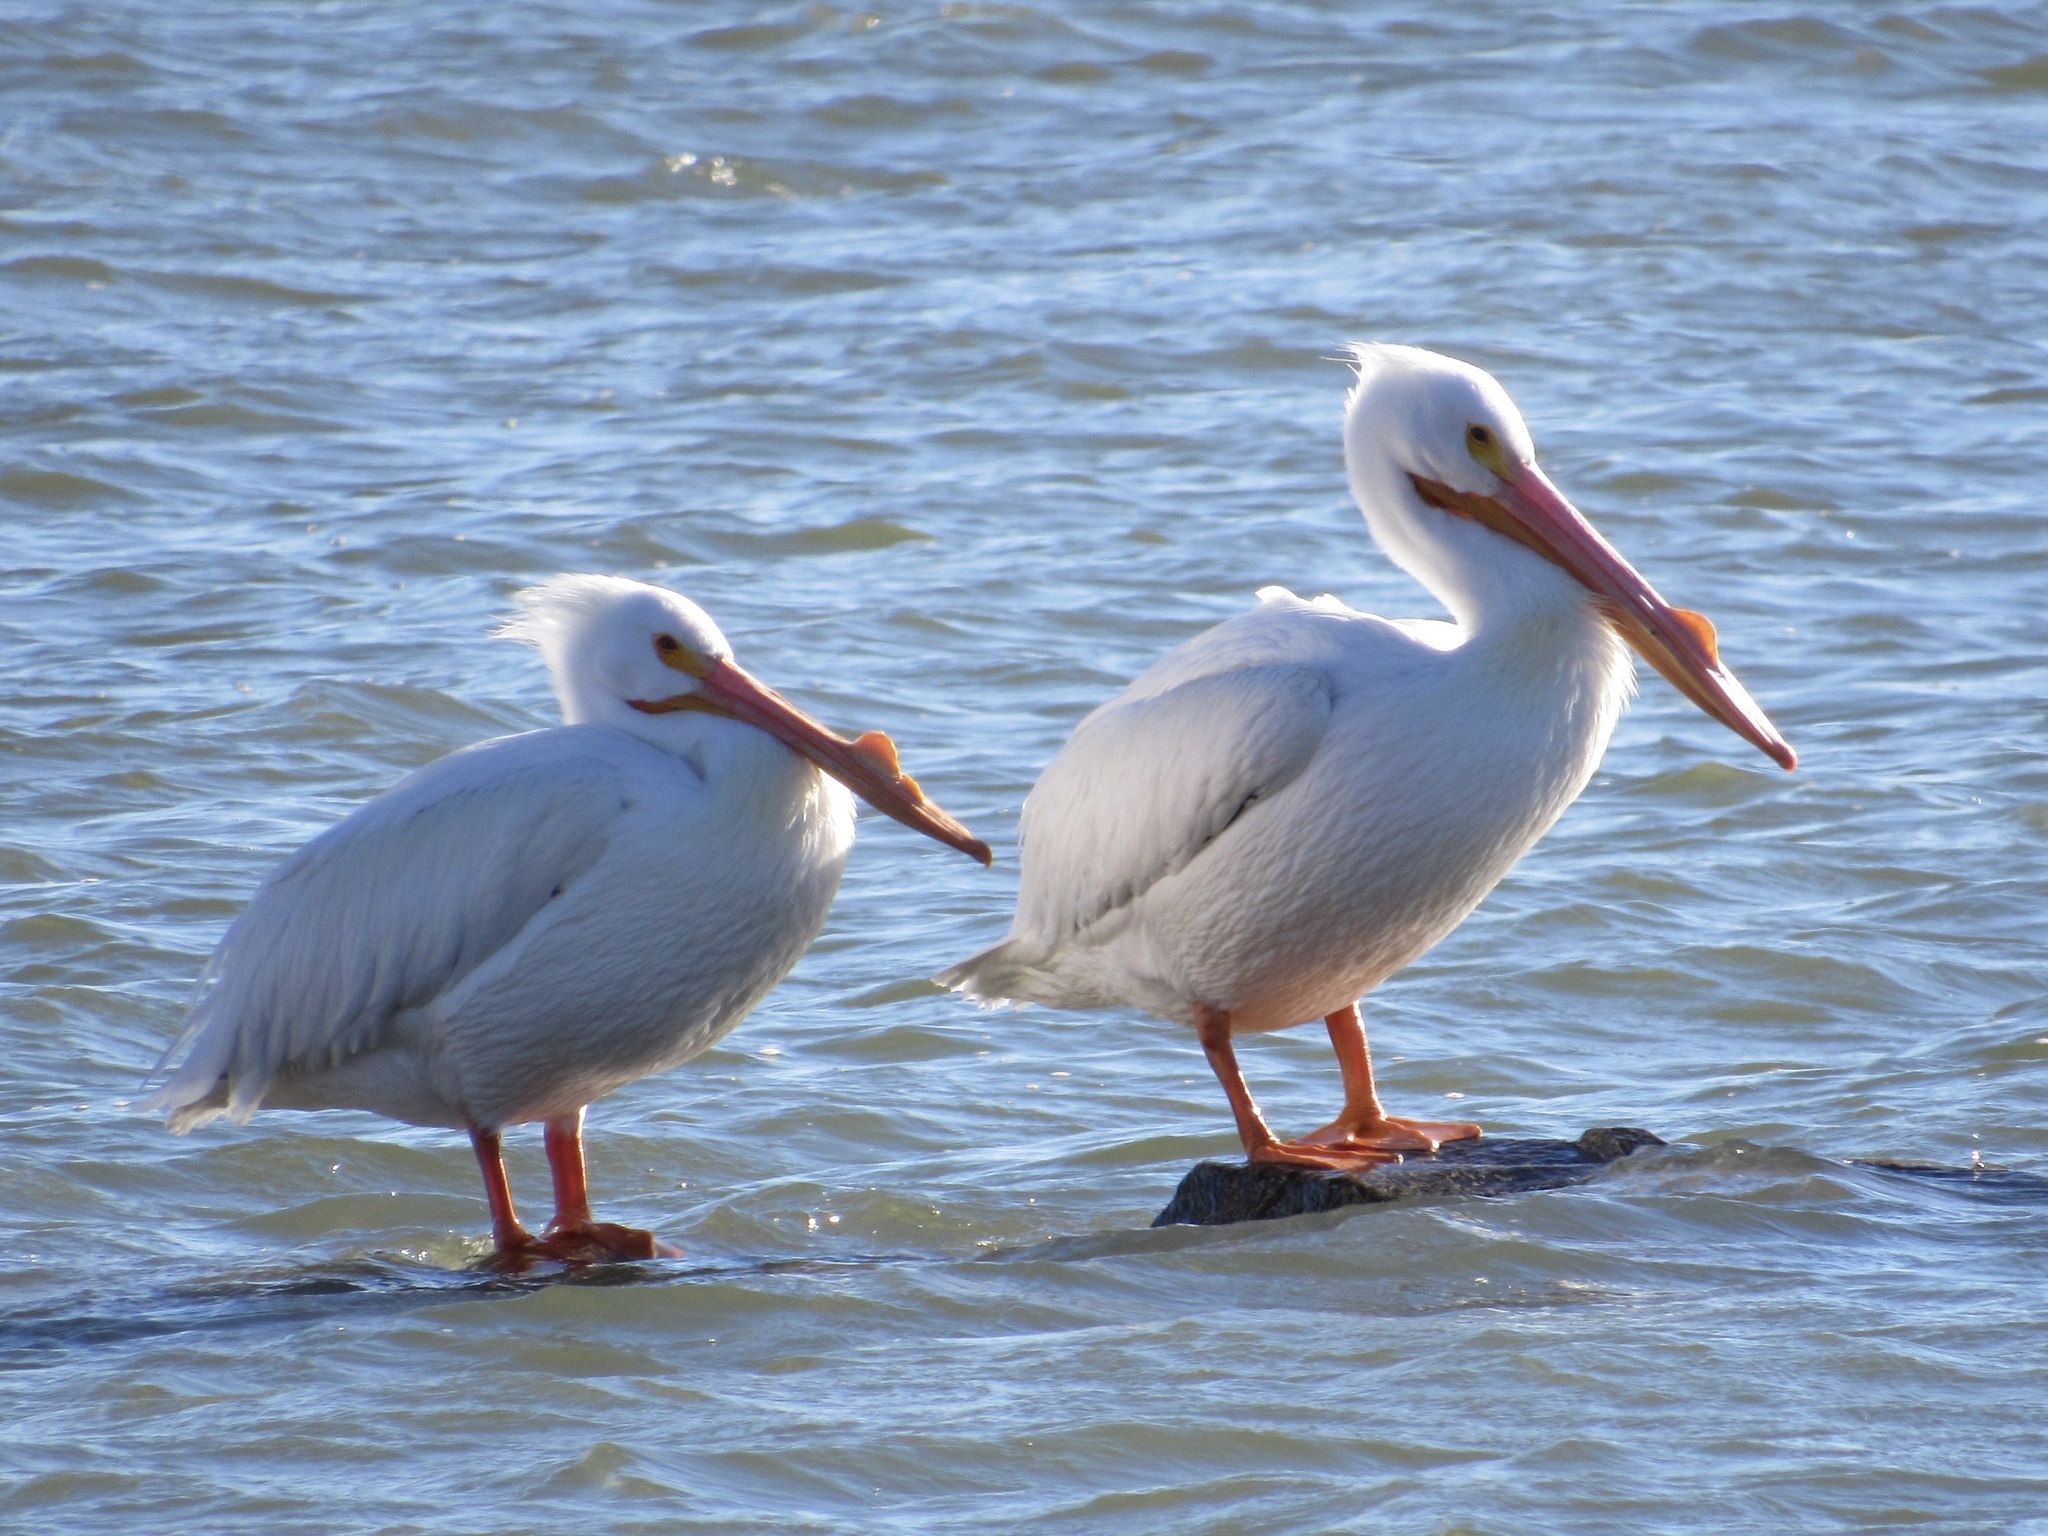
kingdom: Animalia
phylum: Chordata
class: Aves
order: Pelecaniformes
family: Pelecanidae
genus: Pelecanus
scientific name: Pelecanus erythrorhynchos
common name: American white pelican
